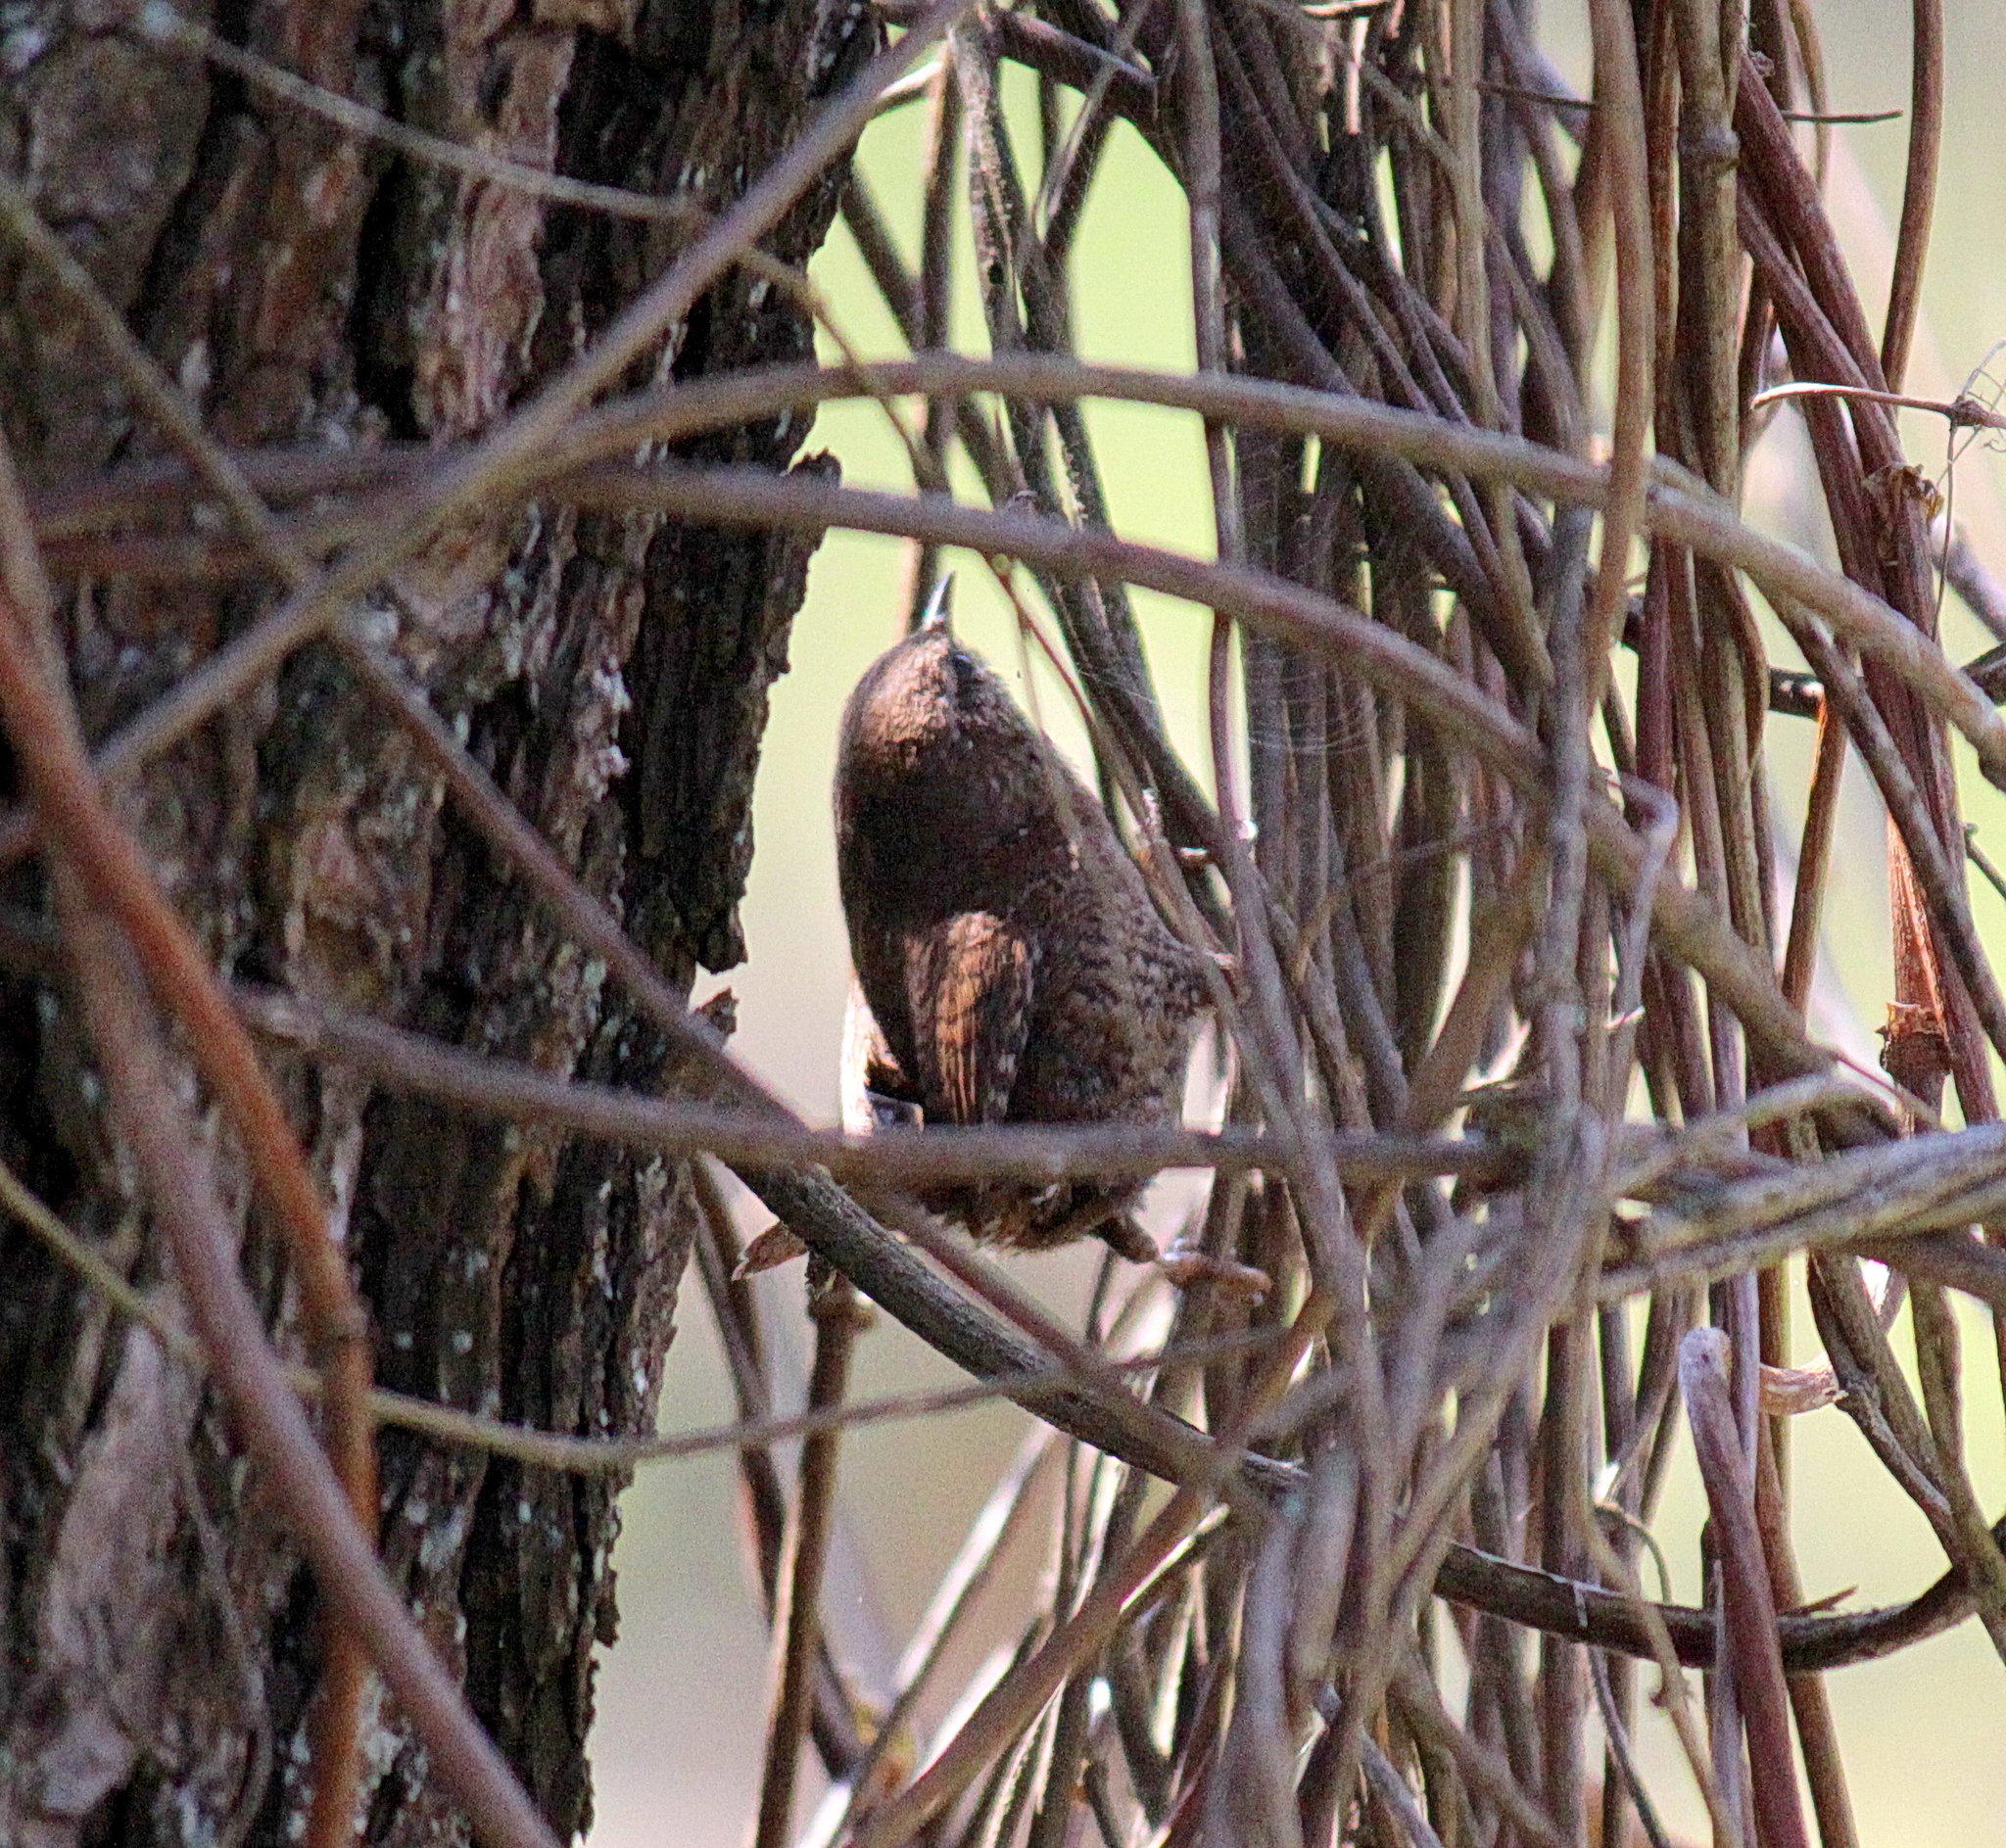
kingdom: Animalia
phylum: Chordata
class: Aves
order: Passeriformes
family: Troglodytidae
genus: Troglodytes
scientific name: Troglodytes troglodytes
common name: Eurasian wren
